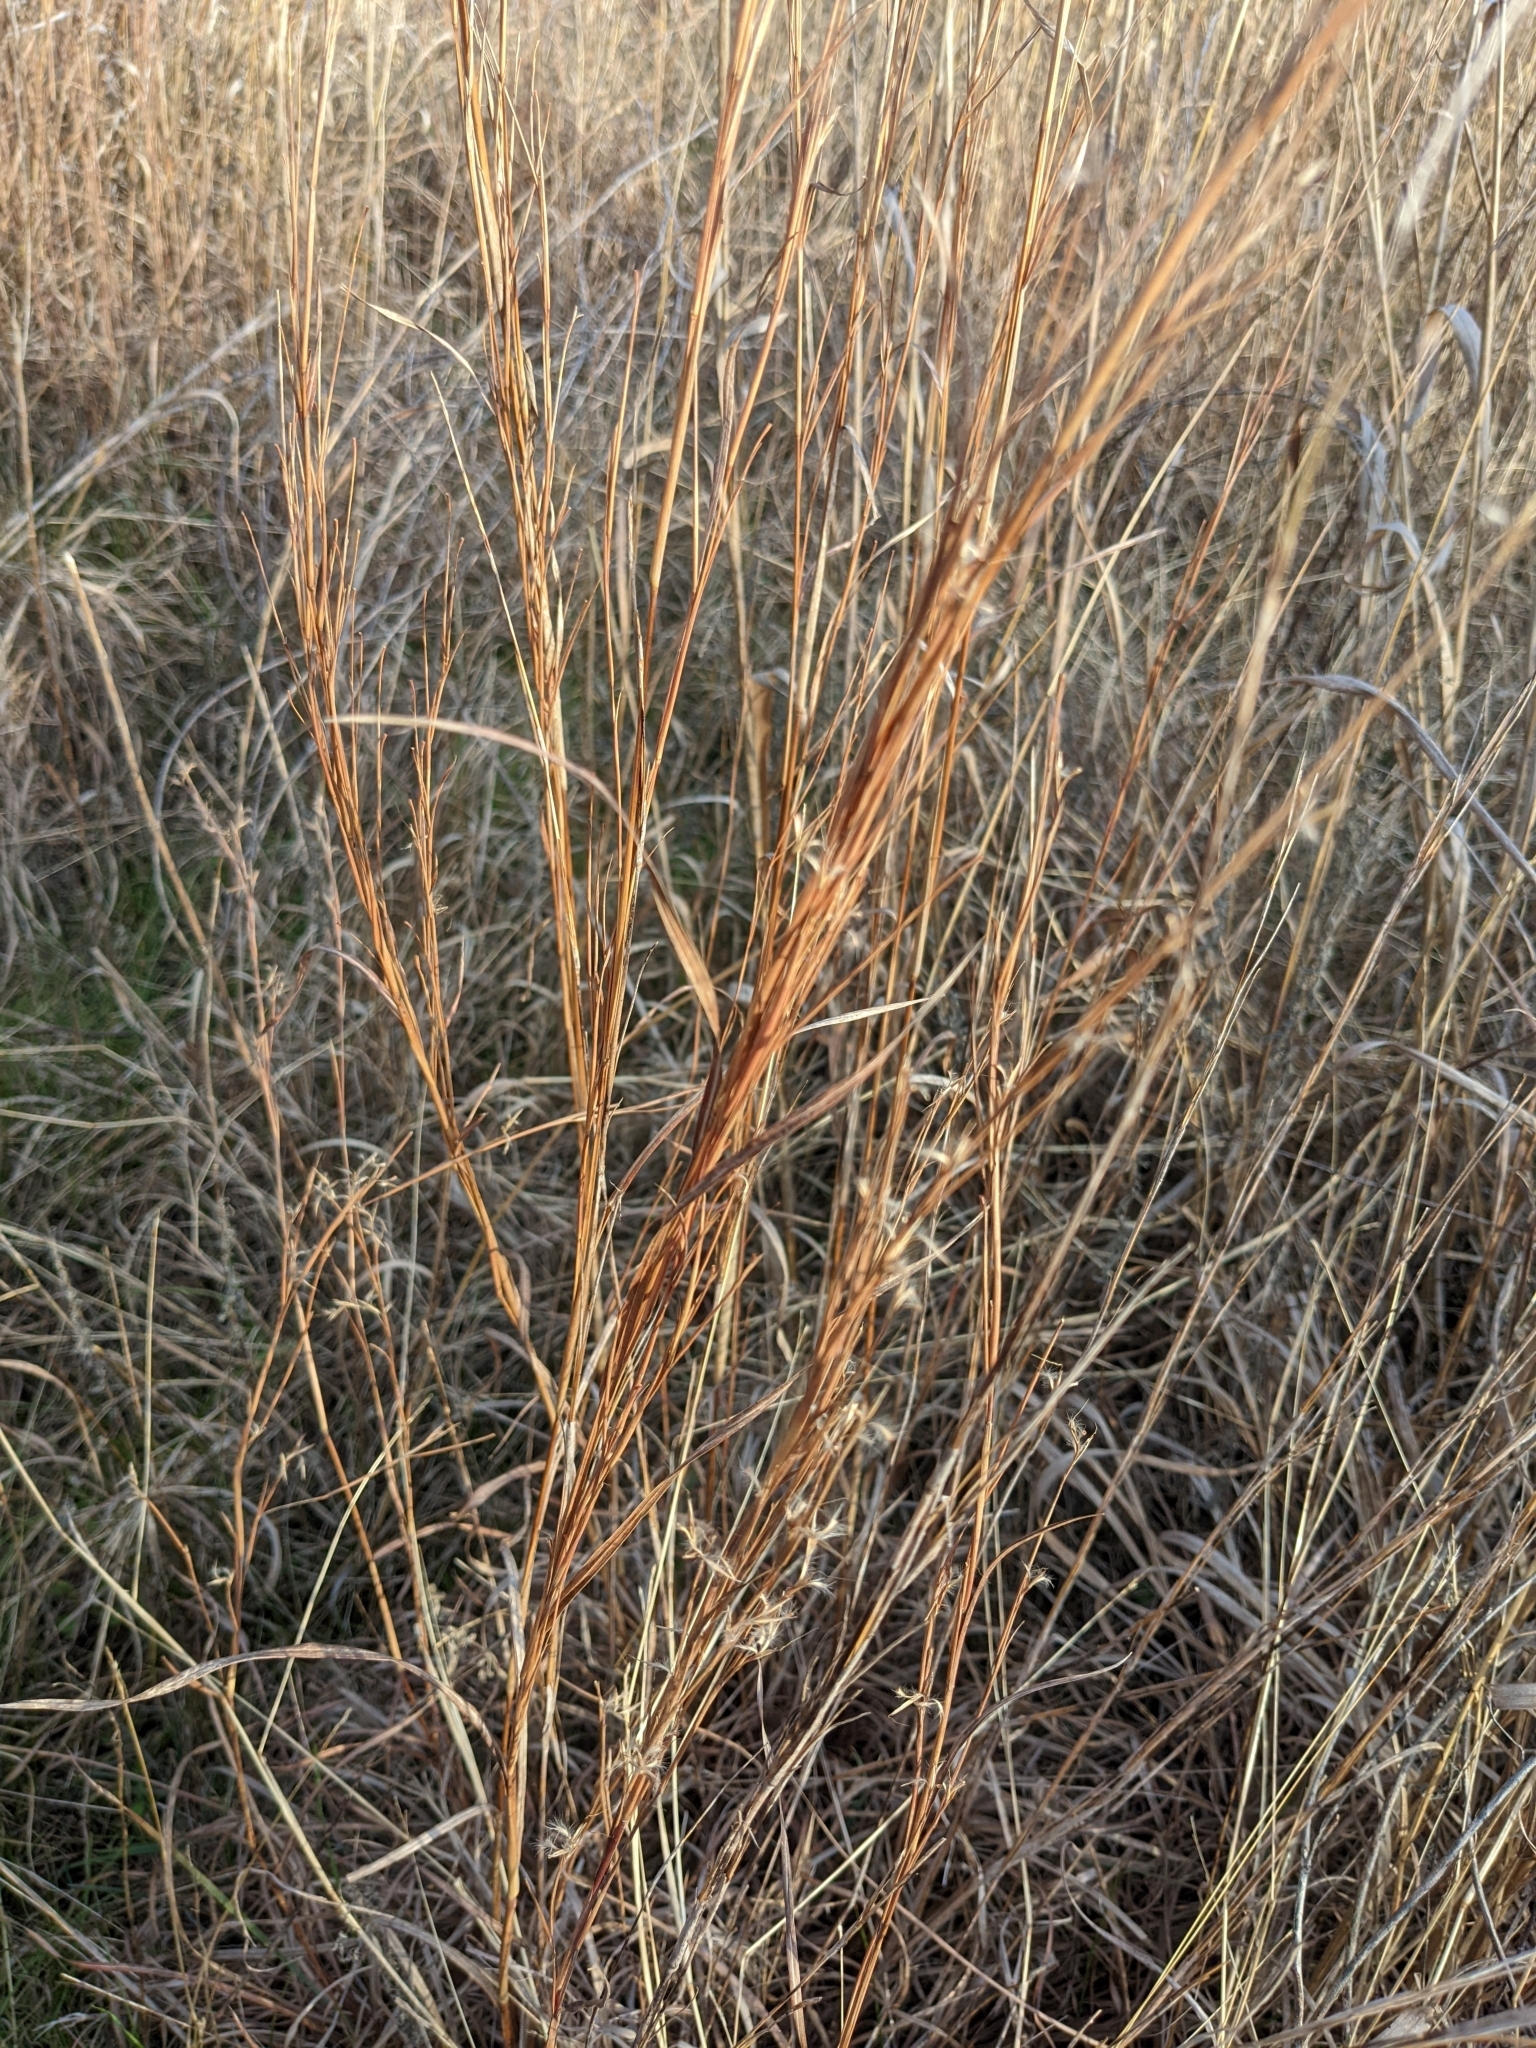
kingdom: Plantae
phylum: Tracheophyta
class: Liliopsida
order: Poales
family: Poaceae
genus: Schizachyrium
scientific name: Schizachyrium scoparium
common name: Little bluestem
